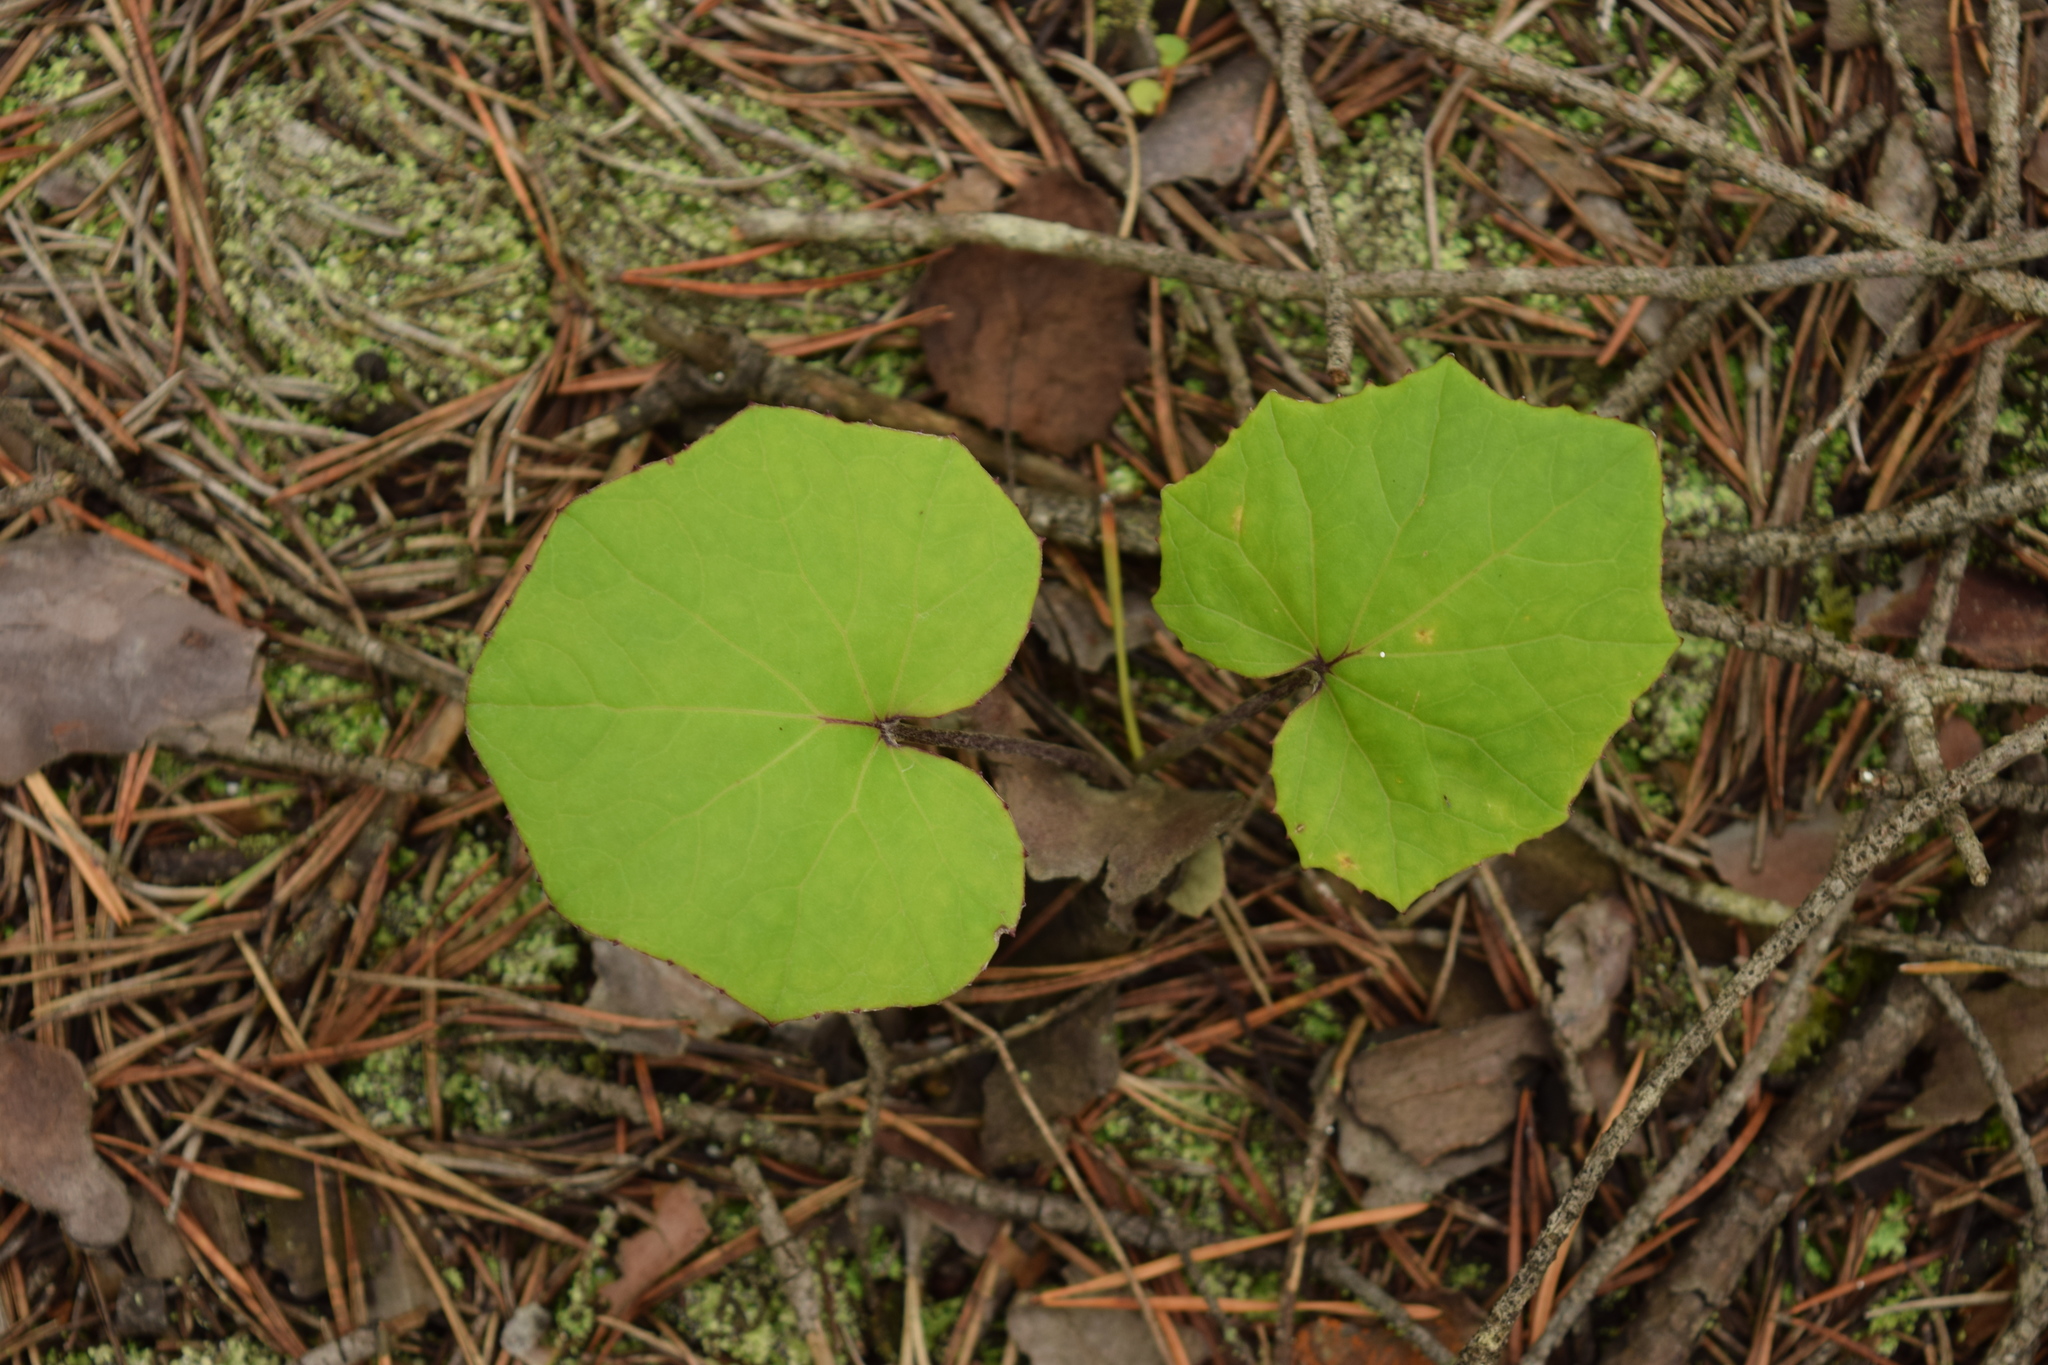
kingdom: Plantae
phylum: Tracheophyta
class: Magnoliopsida
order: Asterales
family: Asteraceae
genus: Tussilago
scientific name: Tussilago farfara
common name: Coltsfoot
